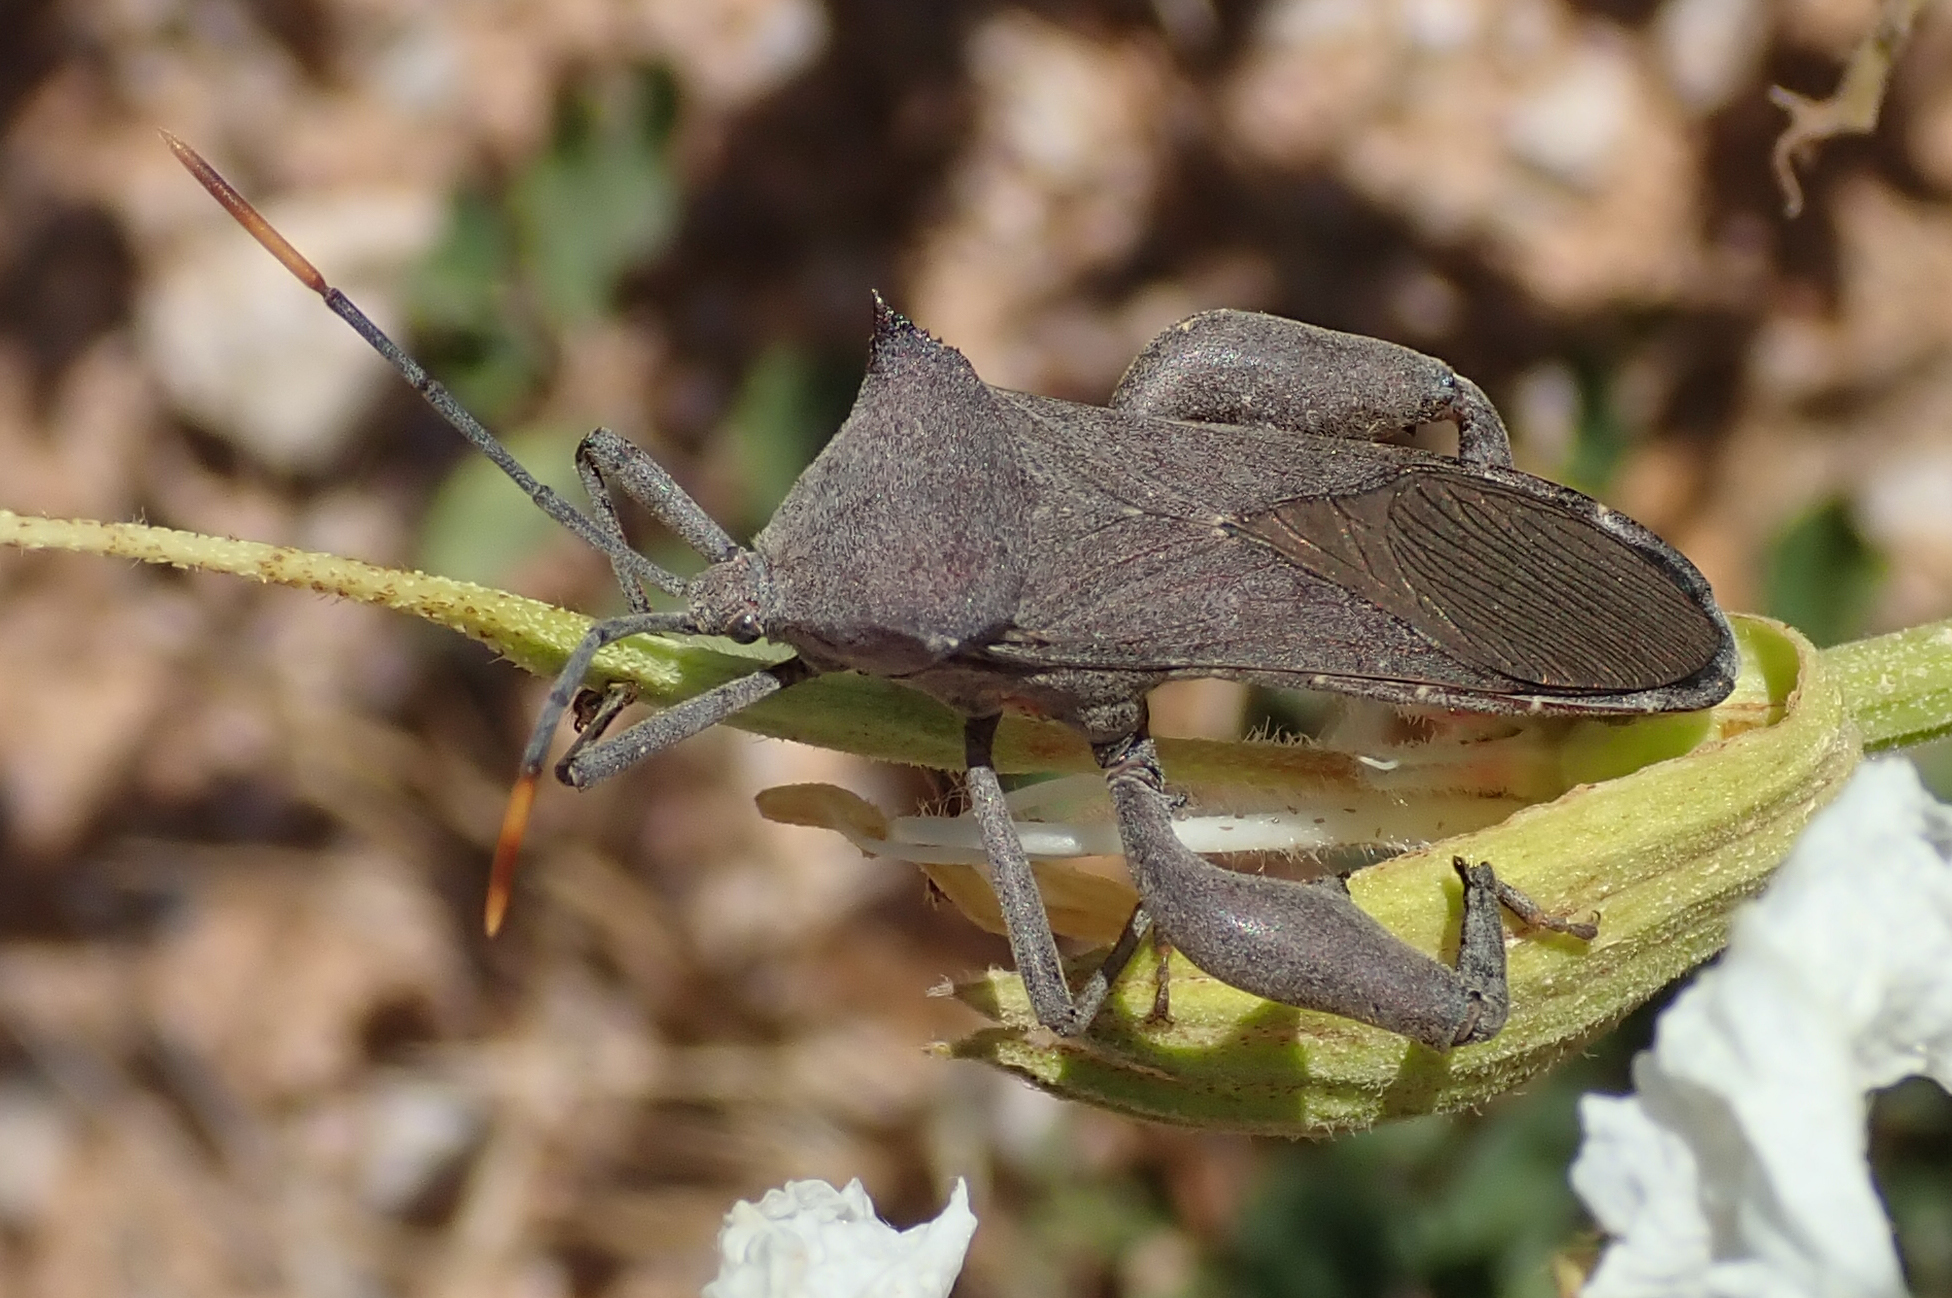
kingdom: Animalia
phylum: Arthropoda
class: Insecta
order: Hemiptera
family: Coreidae
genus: Anoplocnemis
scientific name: Anoplocnemis curvipes
